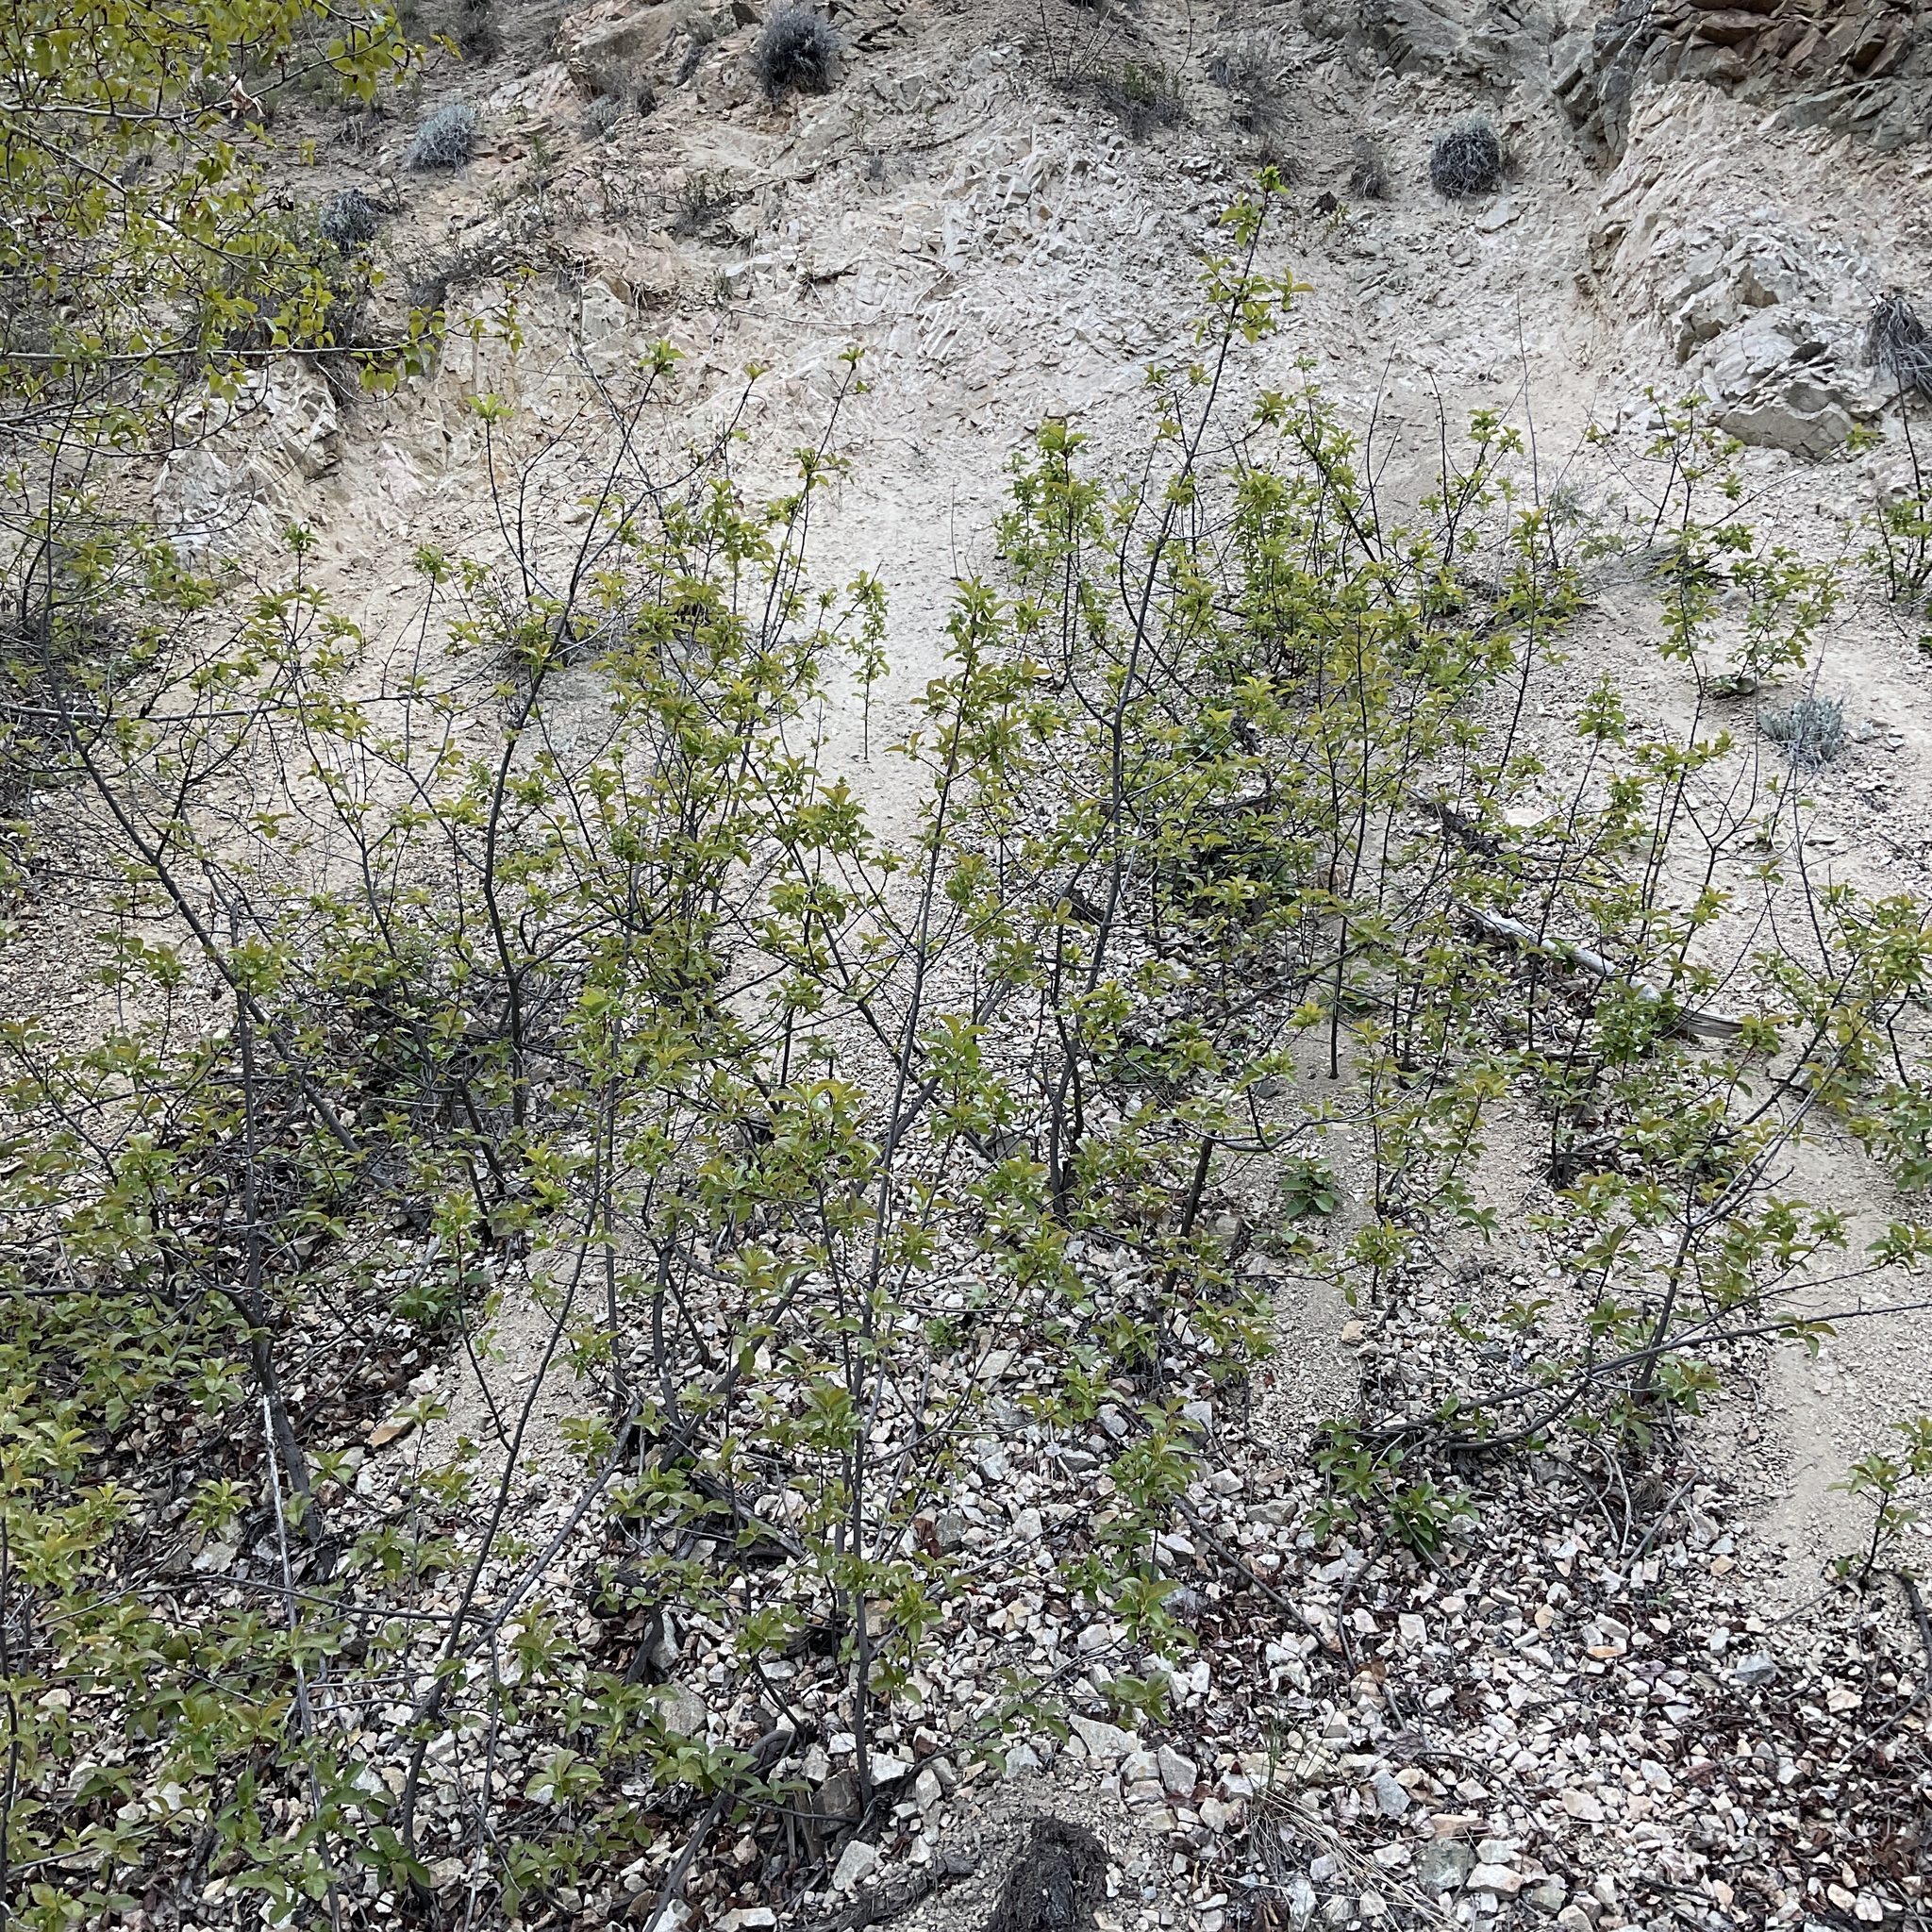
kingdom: Plantae
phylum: Tracheophyta
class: Magnoliopsida
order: Rosales
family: Rosaceae
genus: Prunus
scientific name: Prunus virginiana
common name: Chokecherry
